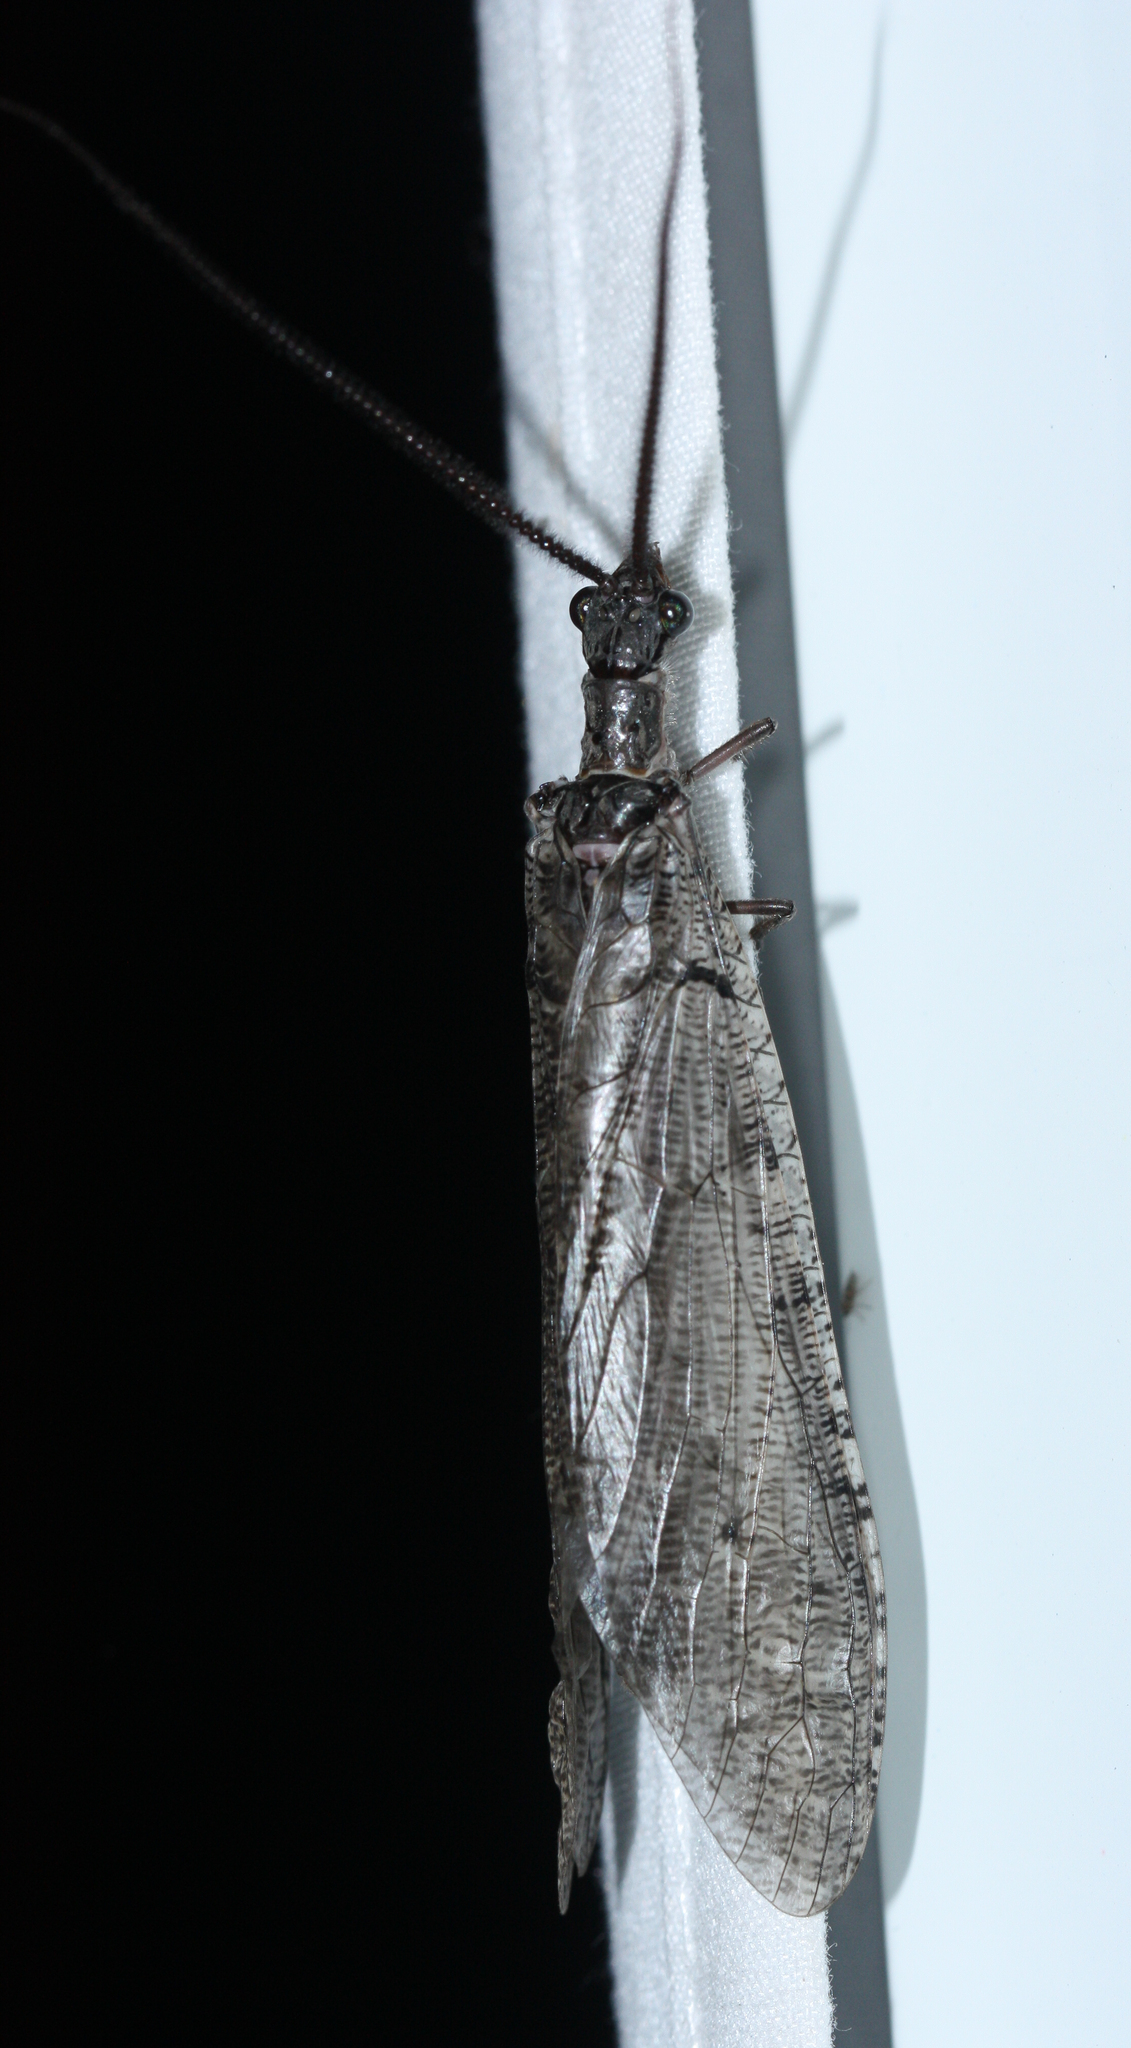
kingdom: Animalia
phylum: Arthropoda
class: Insecta
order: Megaloptera
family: Corydalidae
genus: Neohermes
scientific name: Neohermes filicornis
